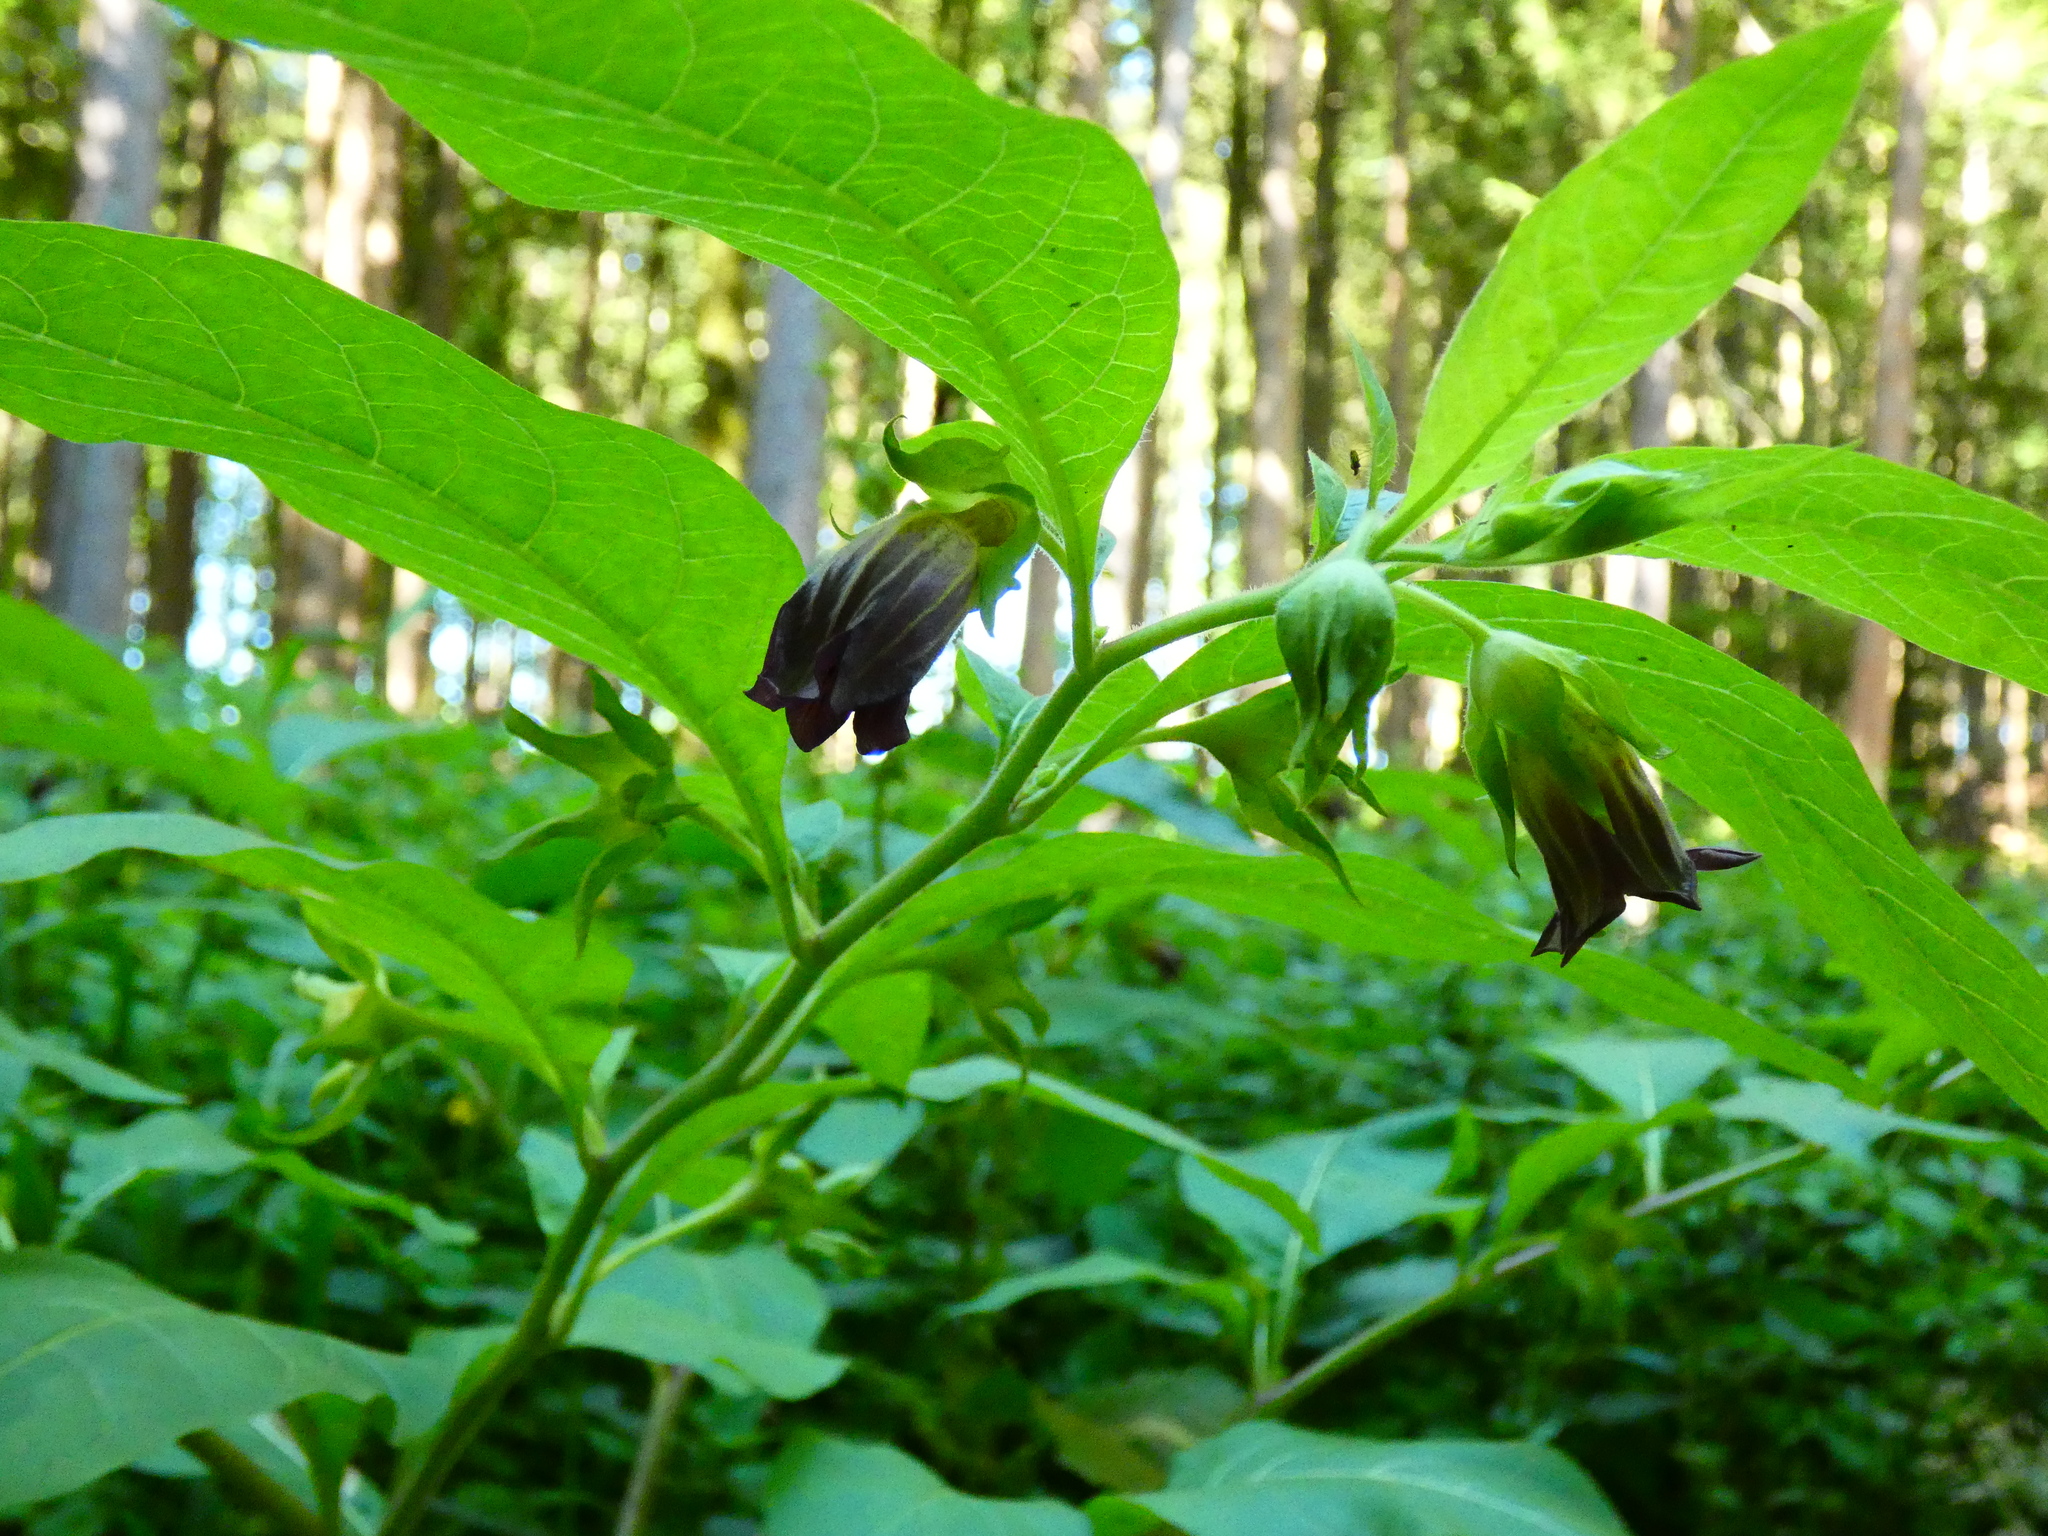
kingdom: Plantae
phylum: Tracheophyta
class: Magnoliopsida
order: Solanales
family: Solanaceae
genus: Atropa
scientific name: Atropa belladonna
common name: Deadly nightshade
